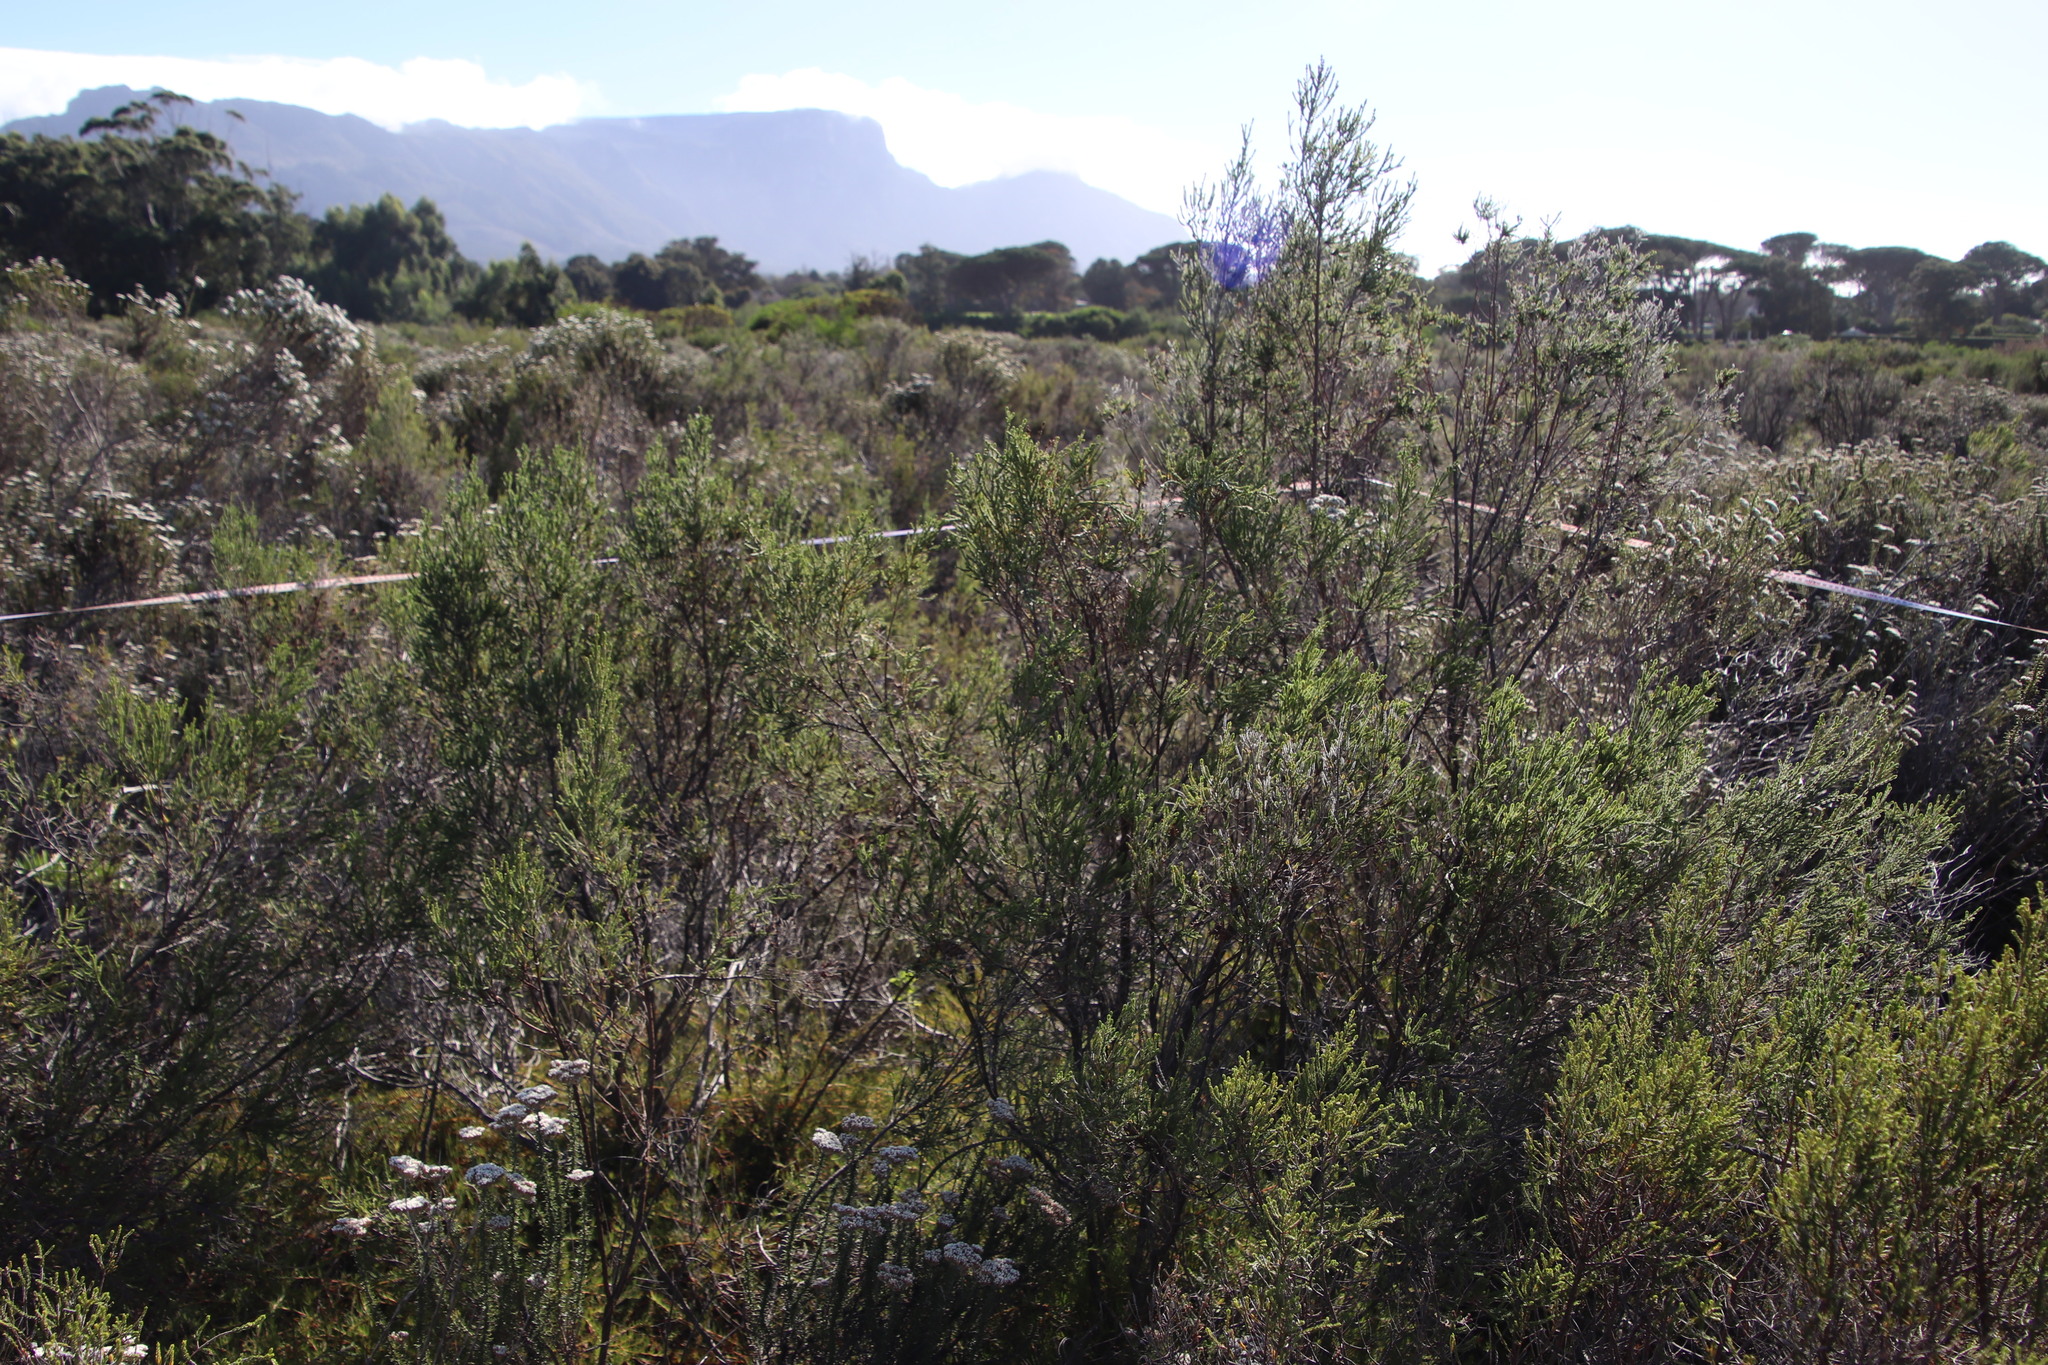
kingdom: Plantae
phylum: Tracheophyta
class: Magnoliopsida
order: Malvales
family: Thymelaeaceae
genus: Passerina
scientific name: Passerina corymbosa
